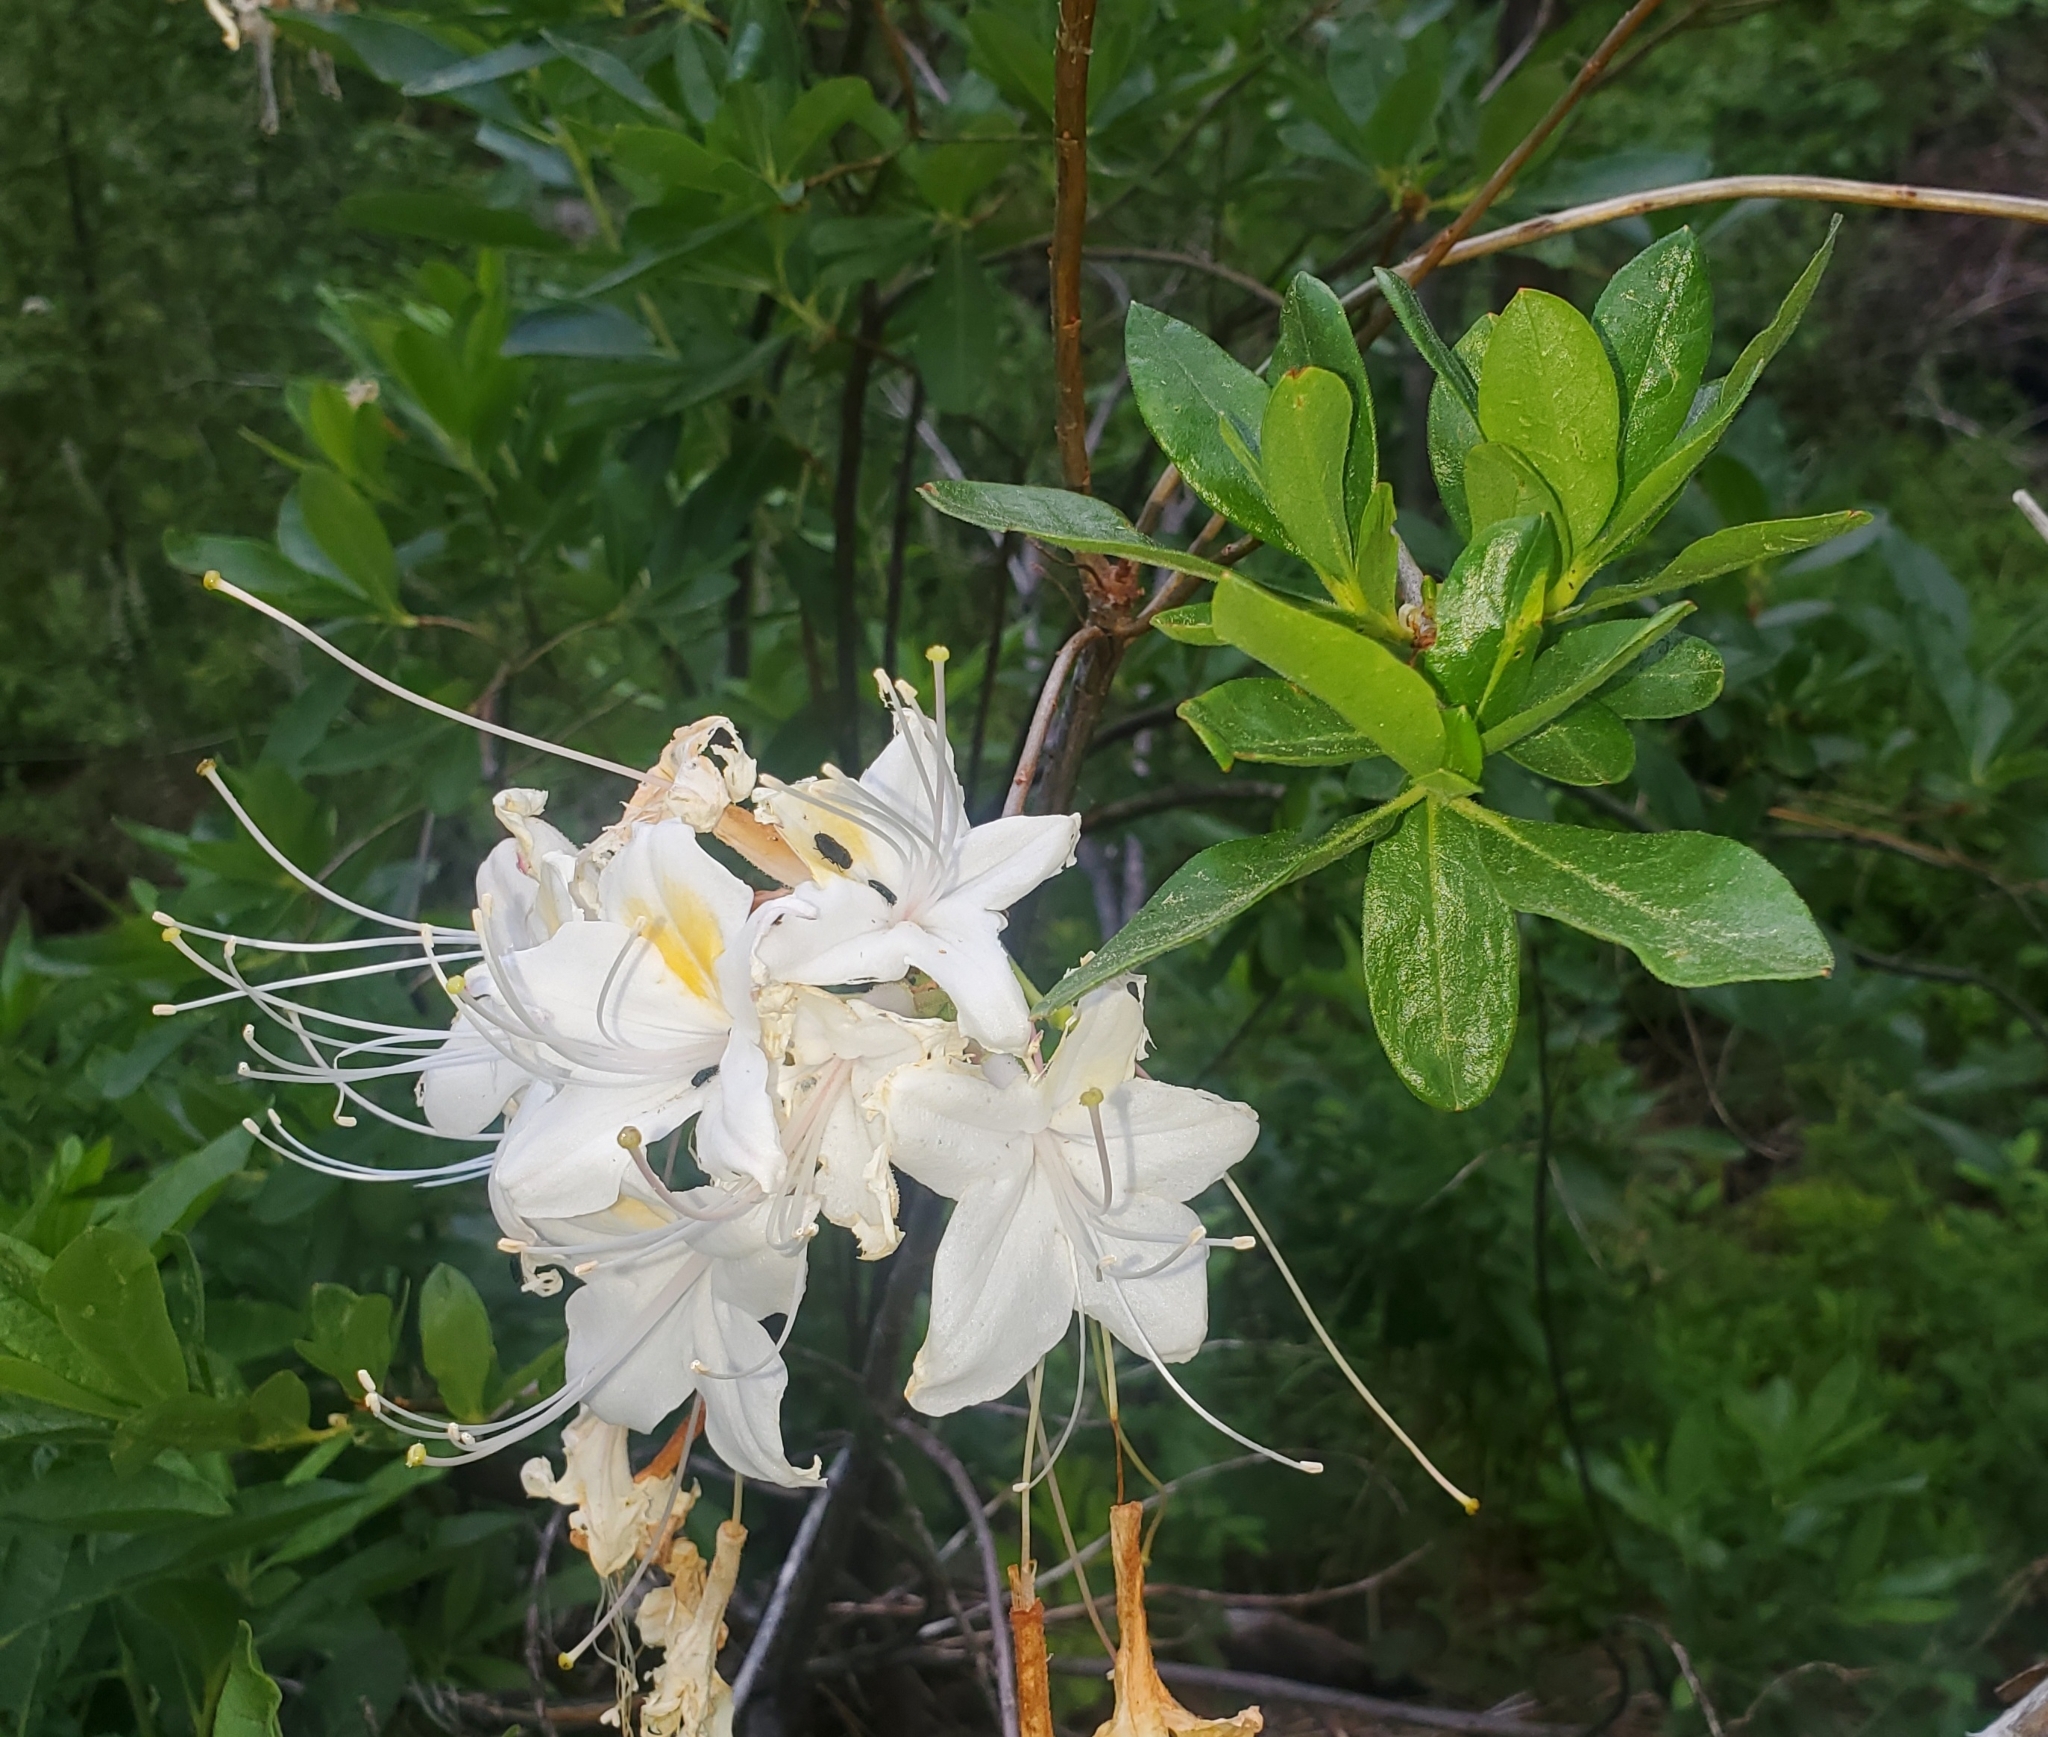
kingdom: Plantae
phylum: Tracheophyta
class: Magnoliopsida
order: Ericales
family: Ericaceae
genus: Rhododendron
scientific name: Rhododendron occidentale
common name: Western azalea
